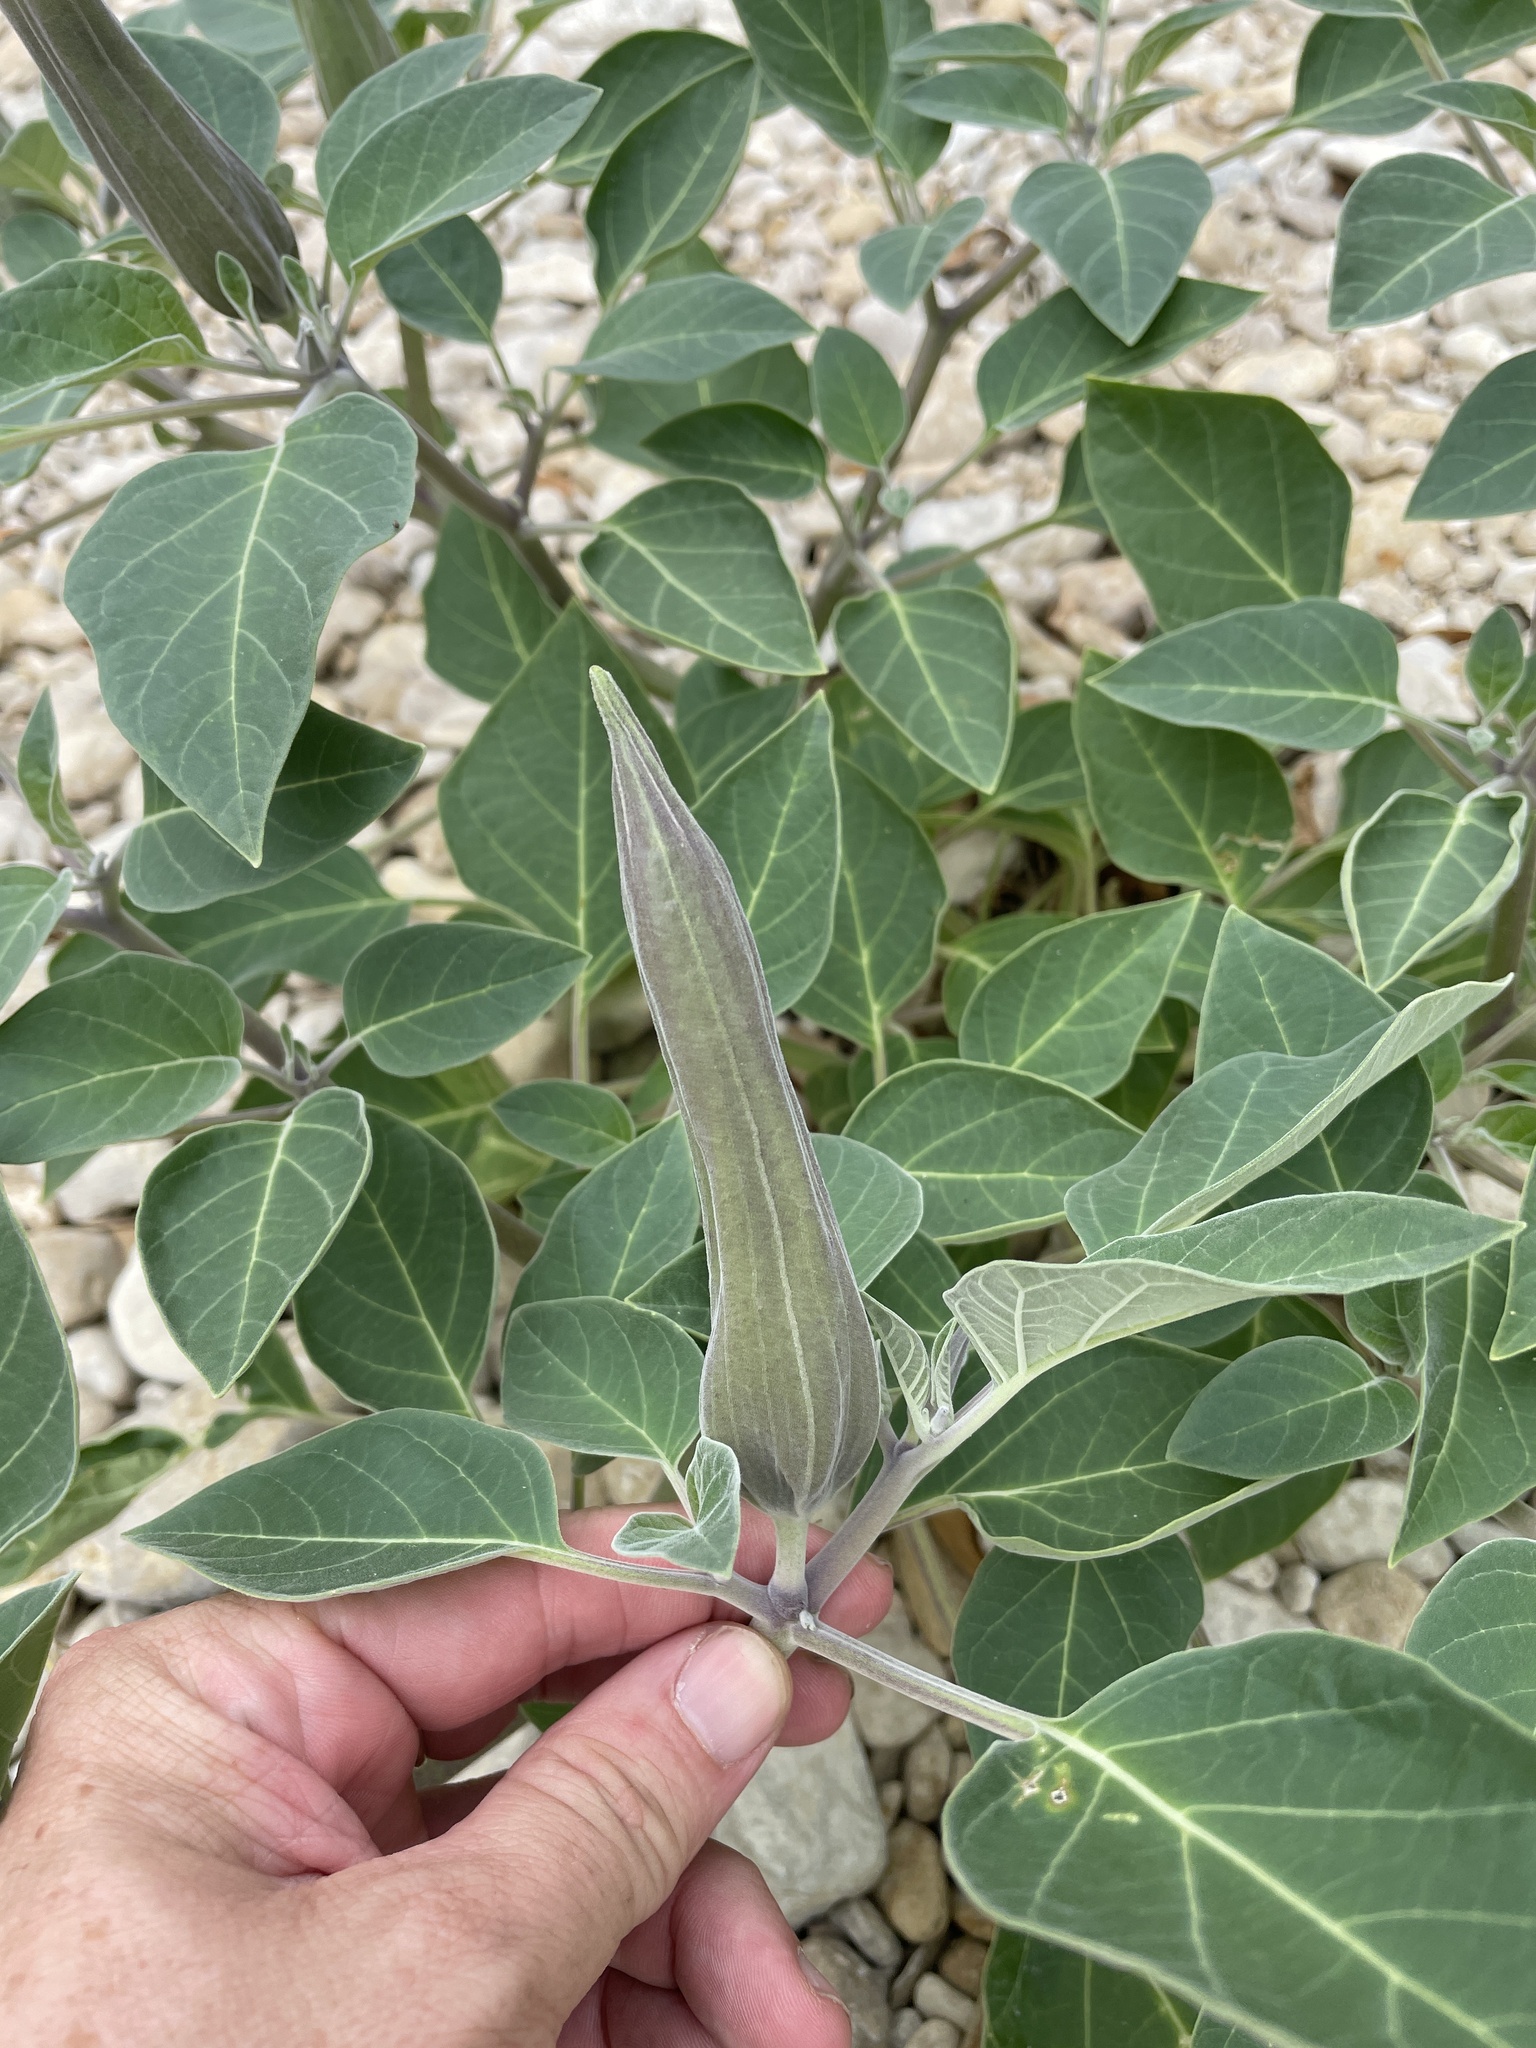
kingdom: Plantae
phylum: Tracheophyta
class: Magnoliopsida
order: Solanales
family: Solanaceae
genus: Datura
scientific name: Datura wrightii
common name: Sacred thorn-apple
